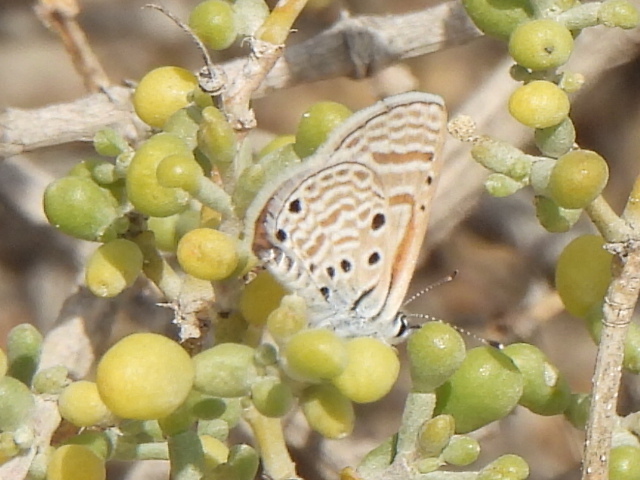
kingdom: Animalia
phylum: Arthropoda
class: Insecta
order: Lepidoptera
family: Lycaenidae
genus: Azanus
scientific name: Azanus ubaldus
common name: Desert babul blue
